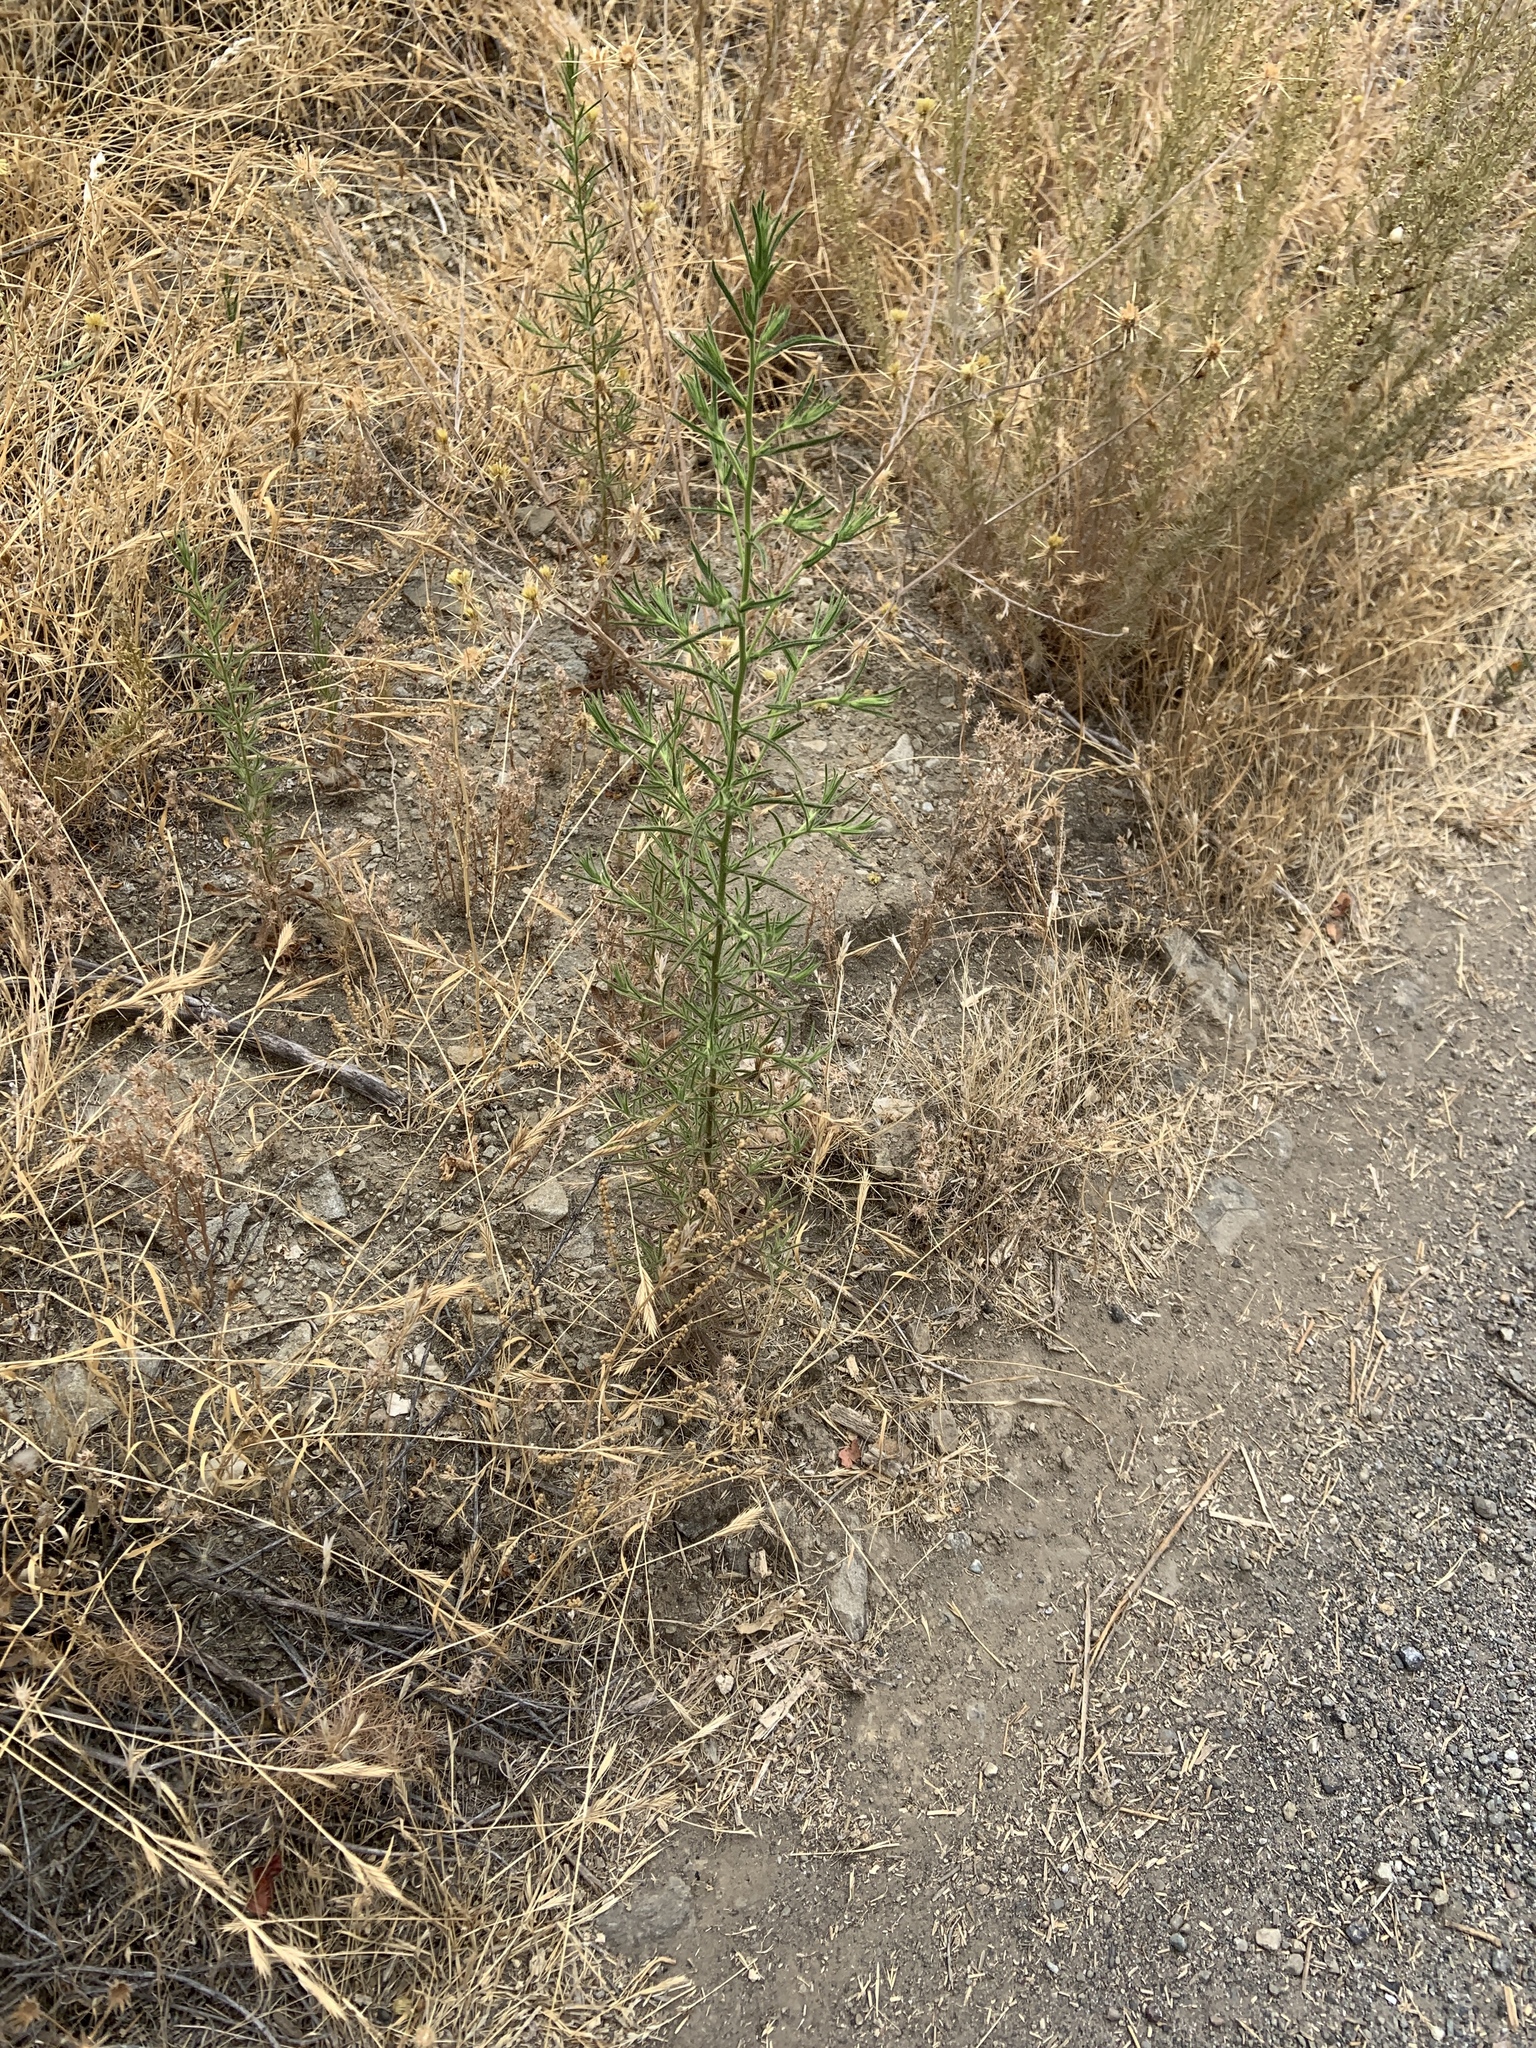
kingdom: Plantae
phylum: Tracheophyta
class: Magnoliopsida
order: Asterales
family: Asteraceae
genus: Dittrichia
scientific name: Dittrichia graveolens
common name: Stinking fleabane
